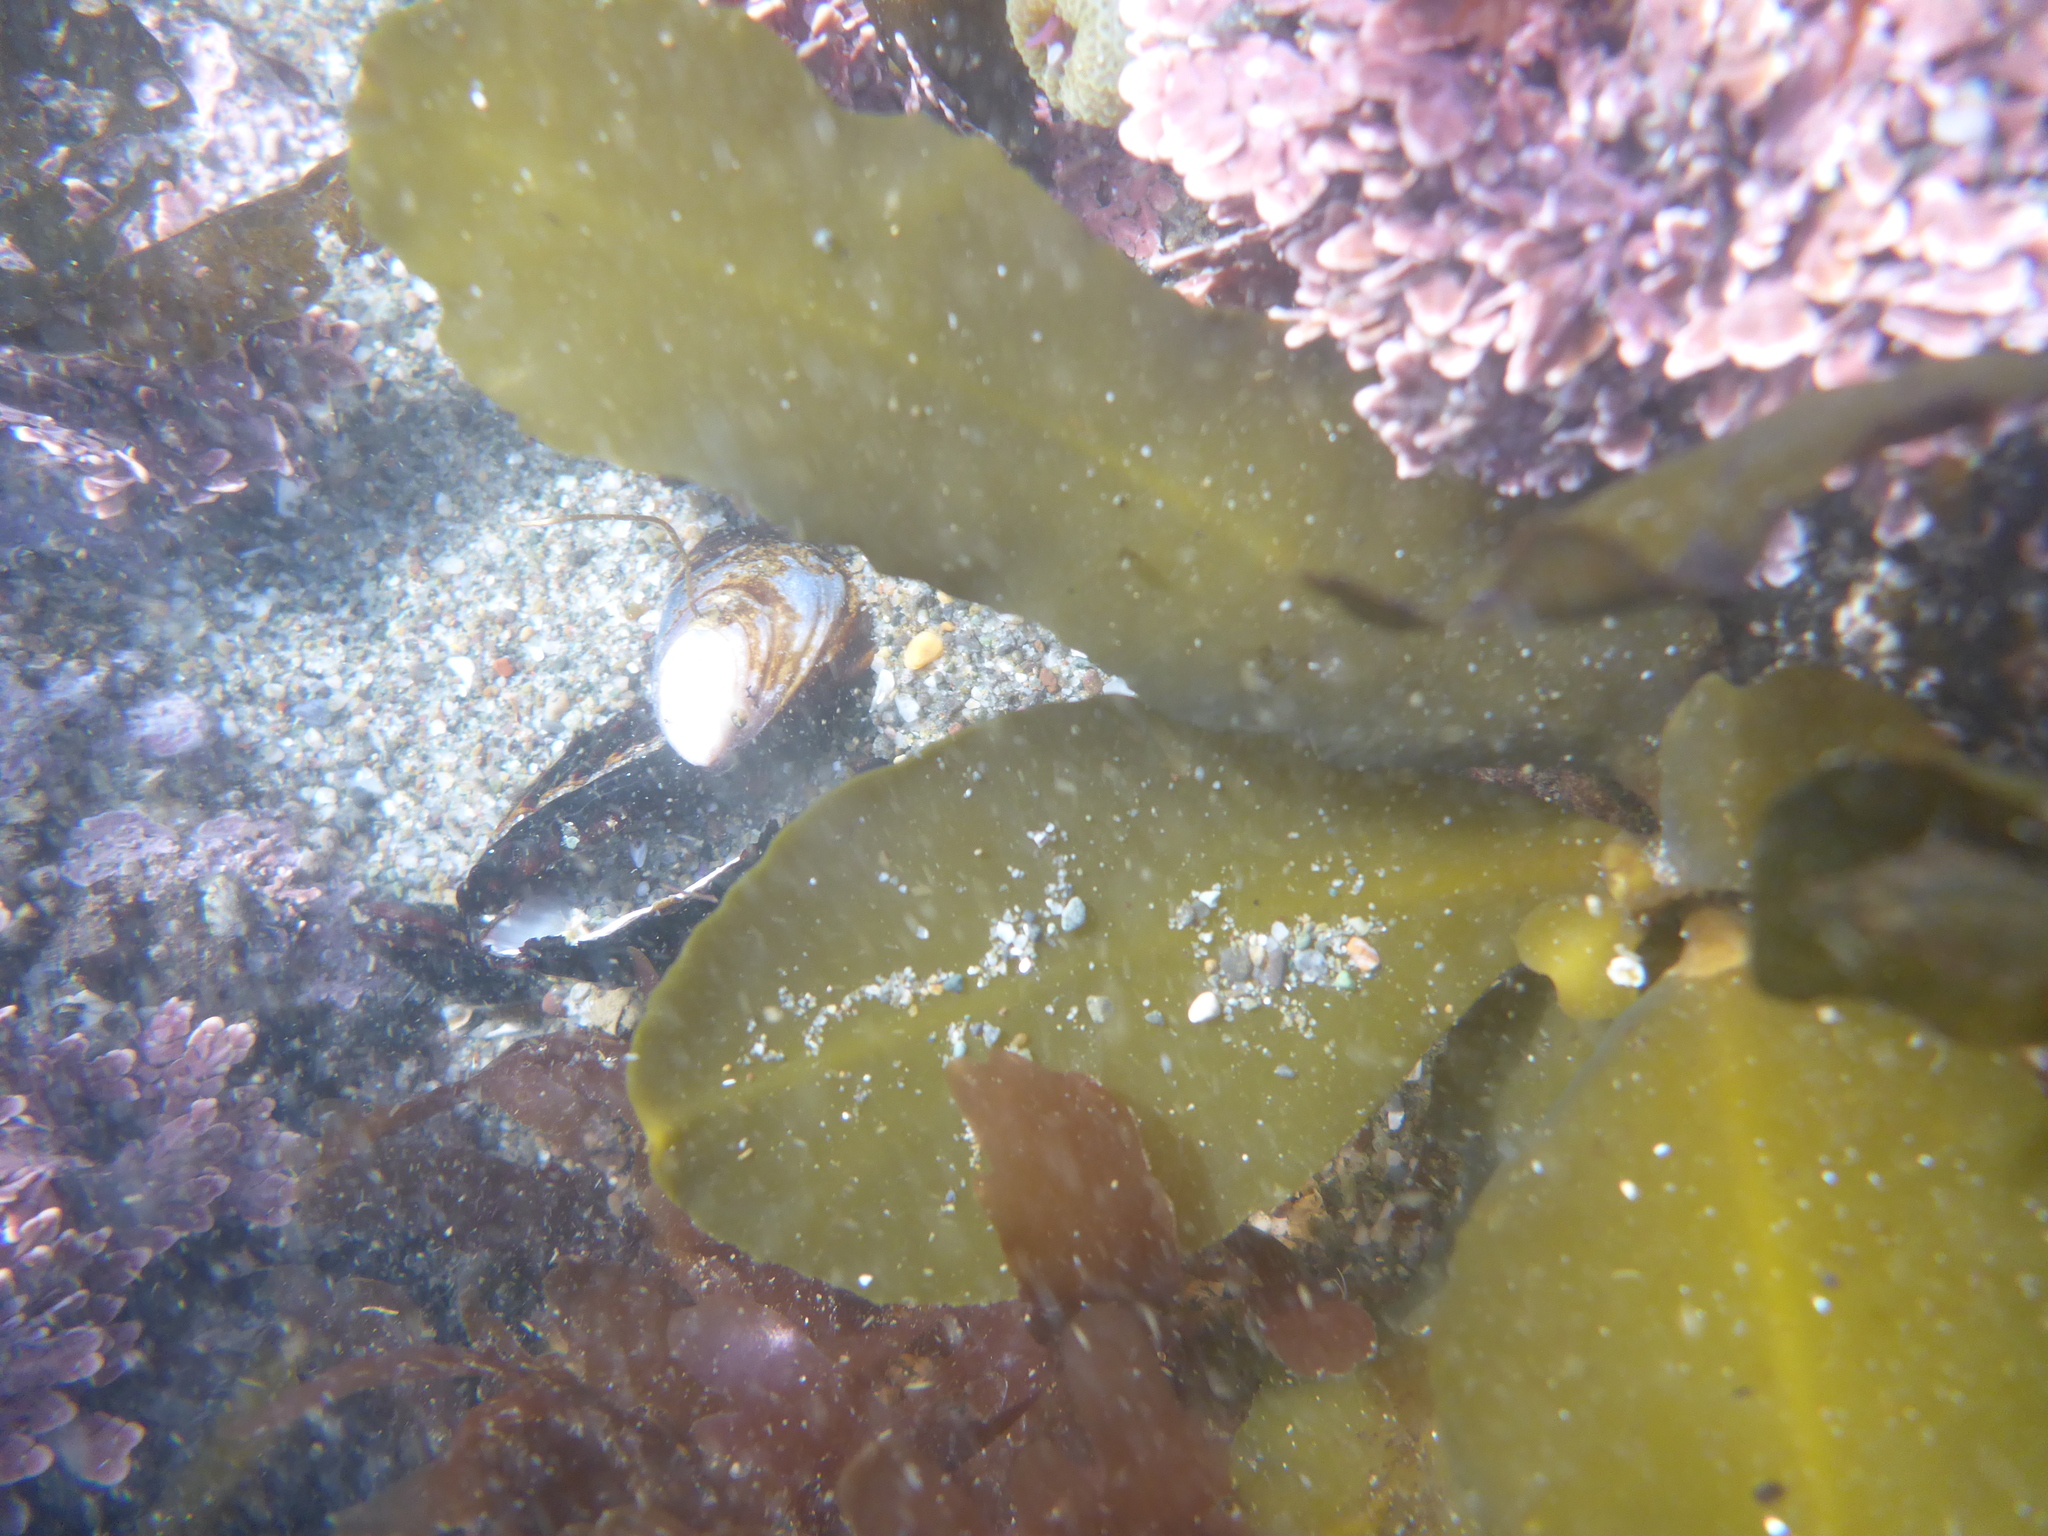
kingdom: Chromista
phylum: Ochrophyta
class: Phaeophyceae
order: Fucales
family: Sargassaceae
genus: Stephanocystis
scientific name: Stephanocystis
